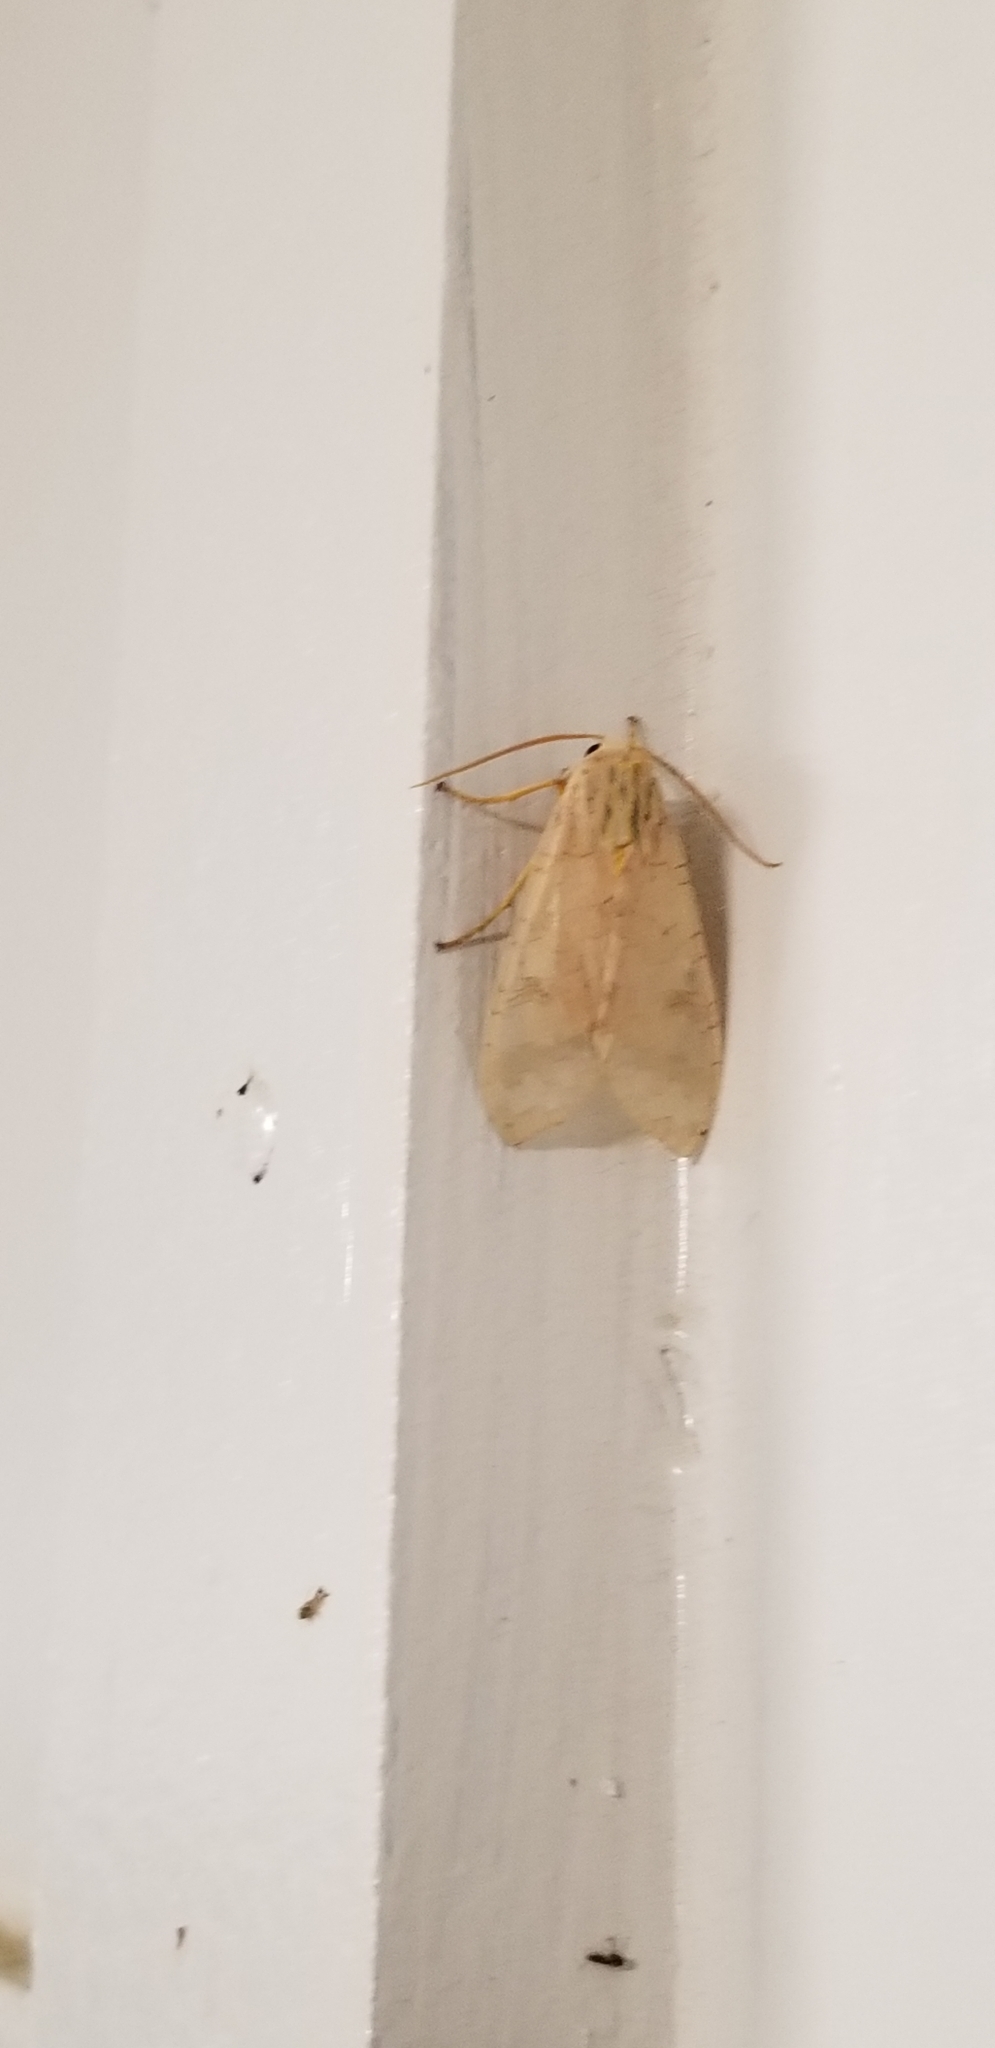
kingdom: Animalia
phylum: Arthropoda
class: Insecta
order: Lepidoptera
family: Erebidae
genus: Halysidota
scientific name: Halysidota
